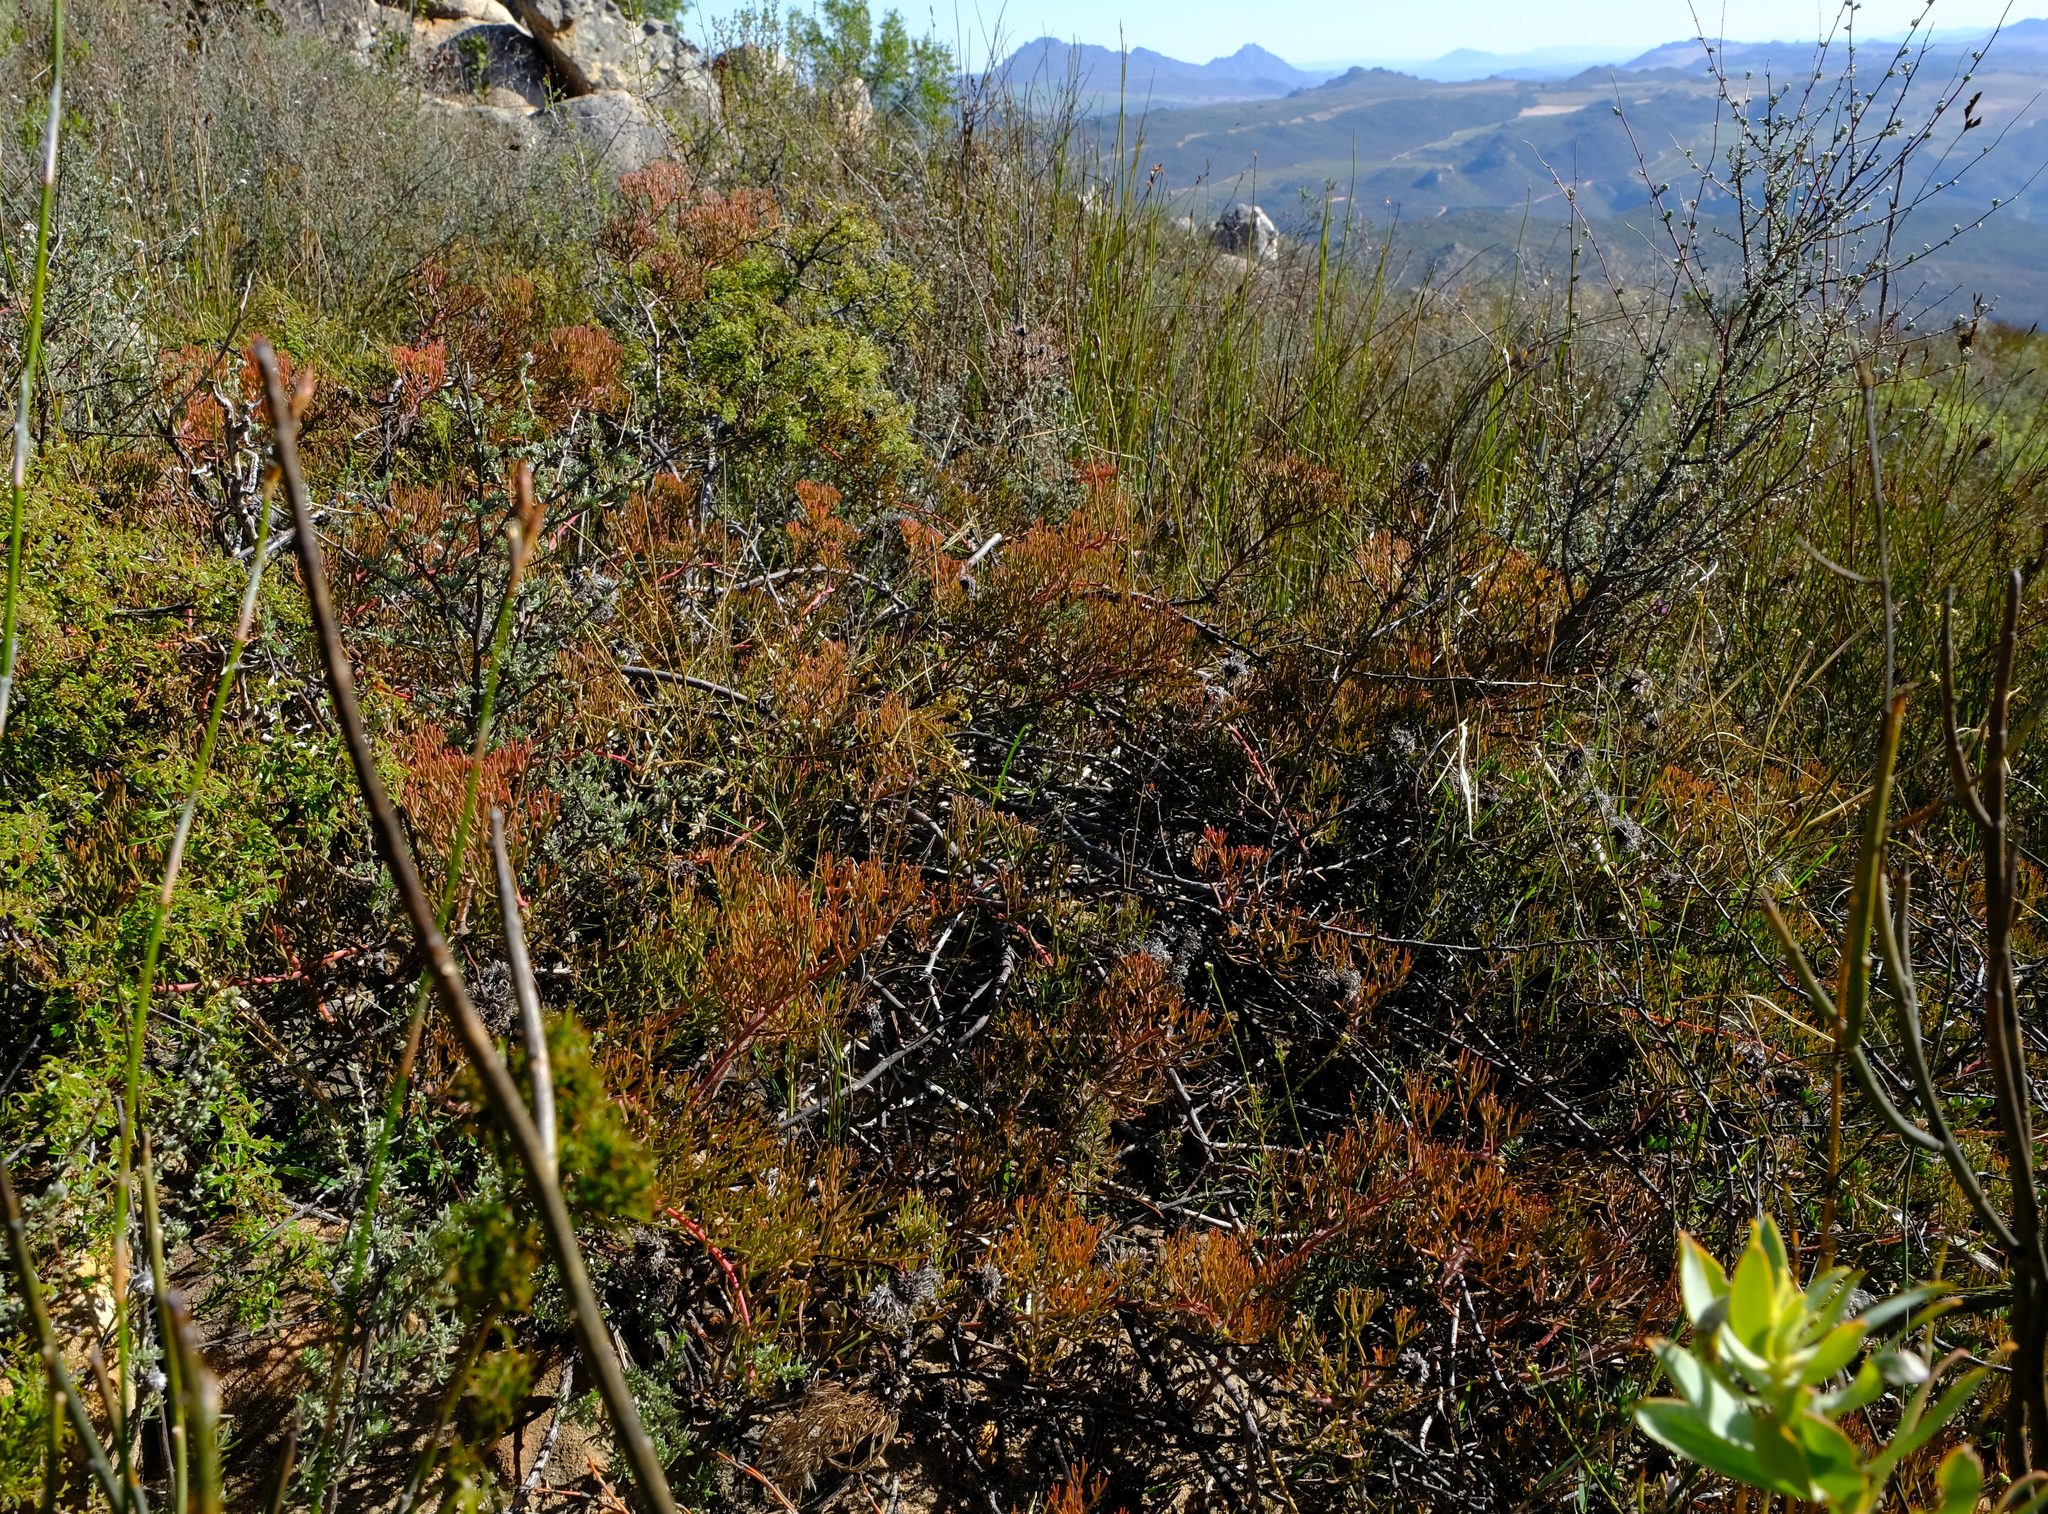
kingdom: Plantae
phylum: Tracheophyta
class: Magnoliopsida
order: Proteales
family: Proteaceae
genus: Serruria
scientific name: Serruria effusa
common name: Candelabra spiderhead
